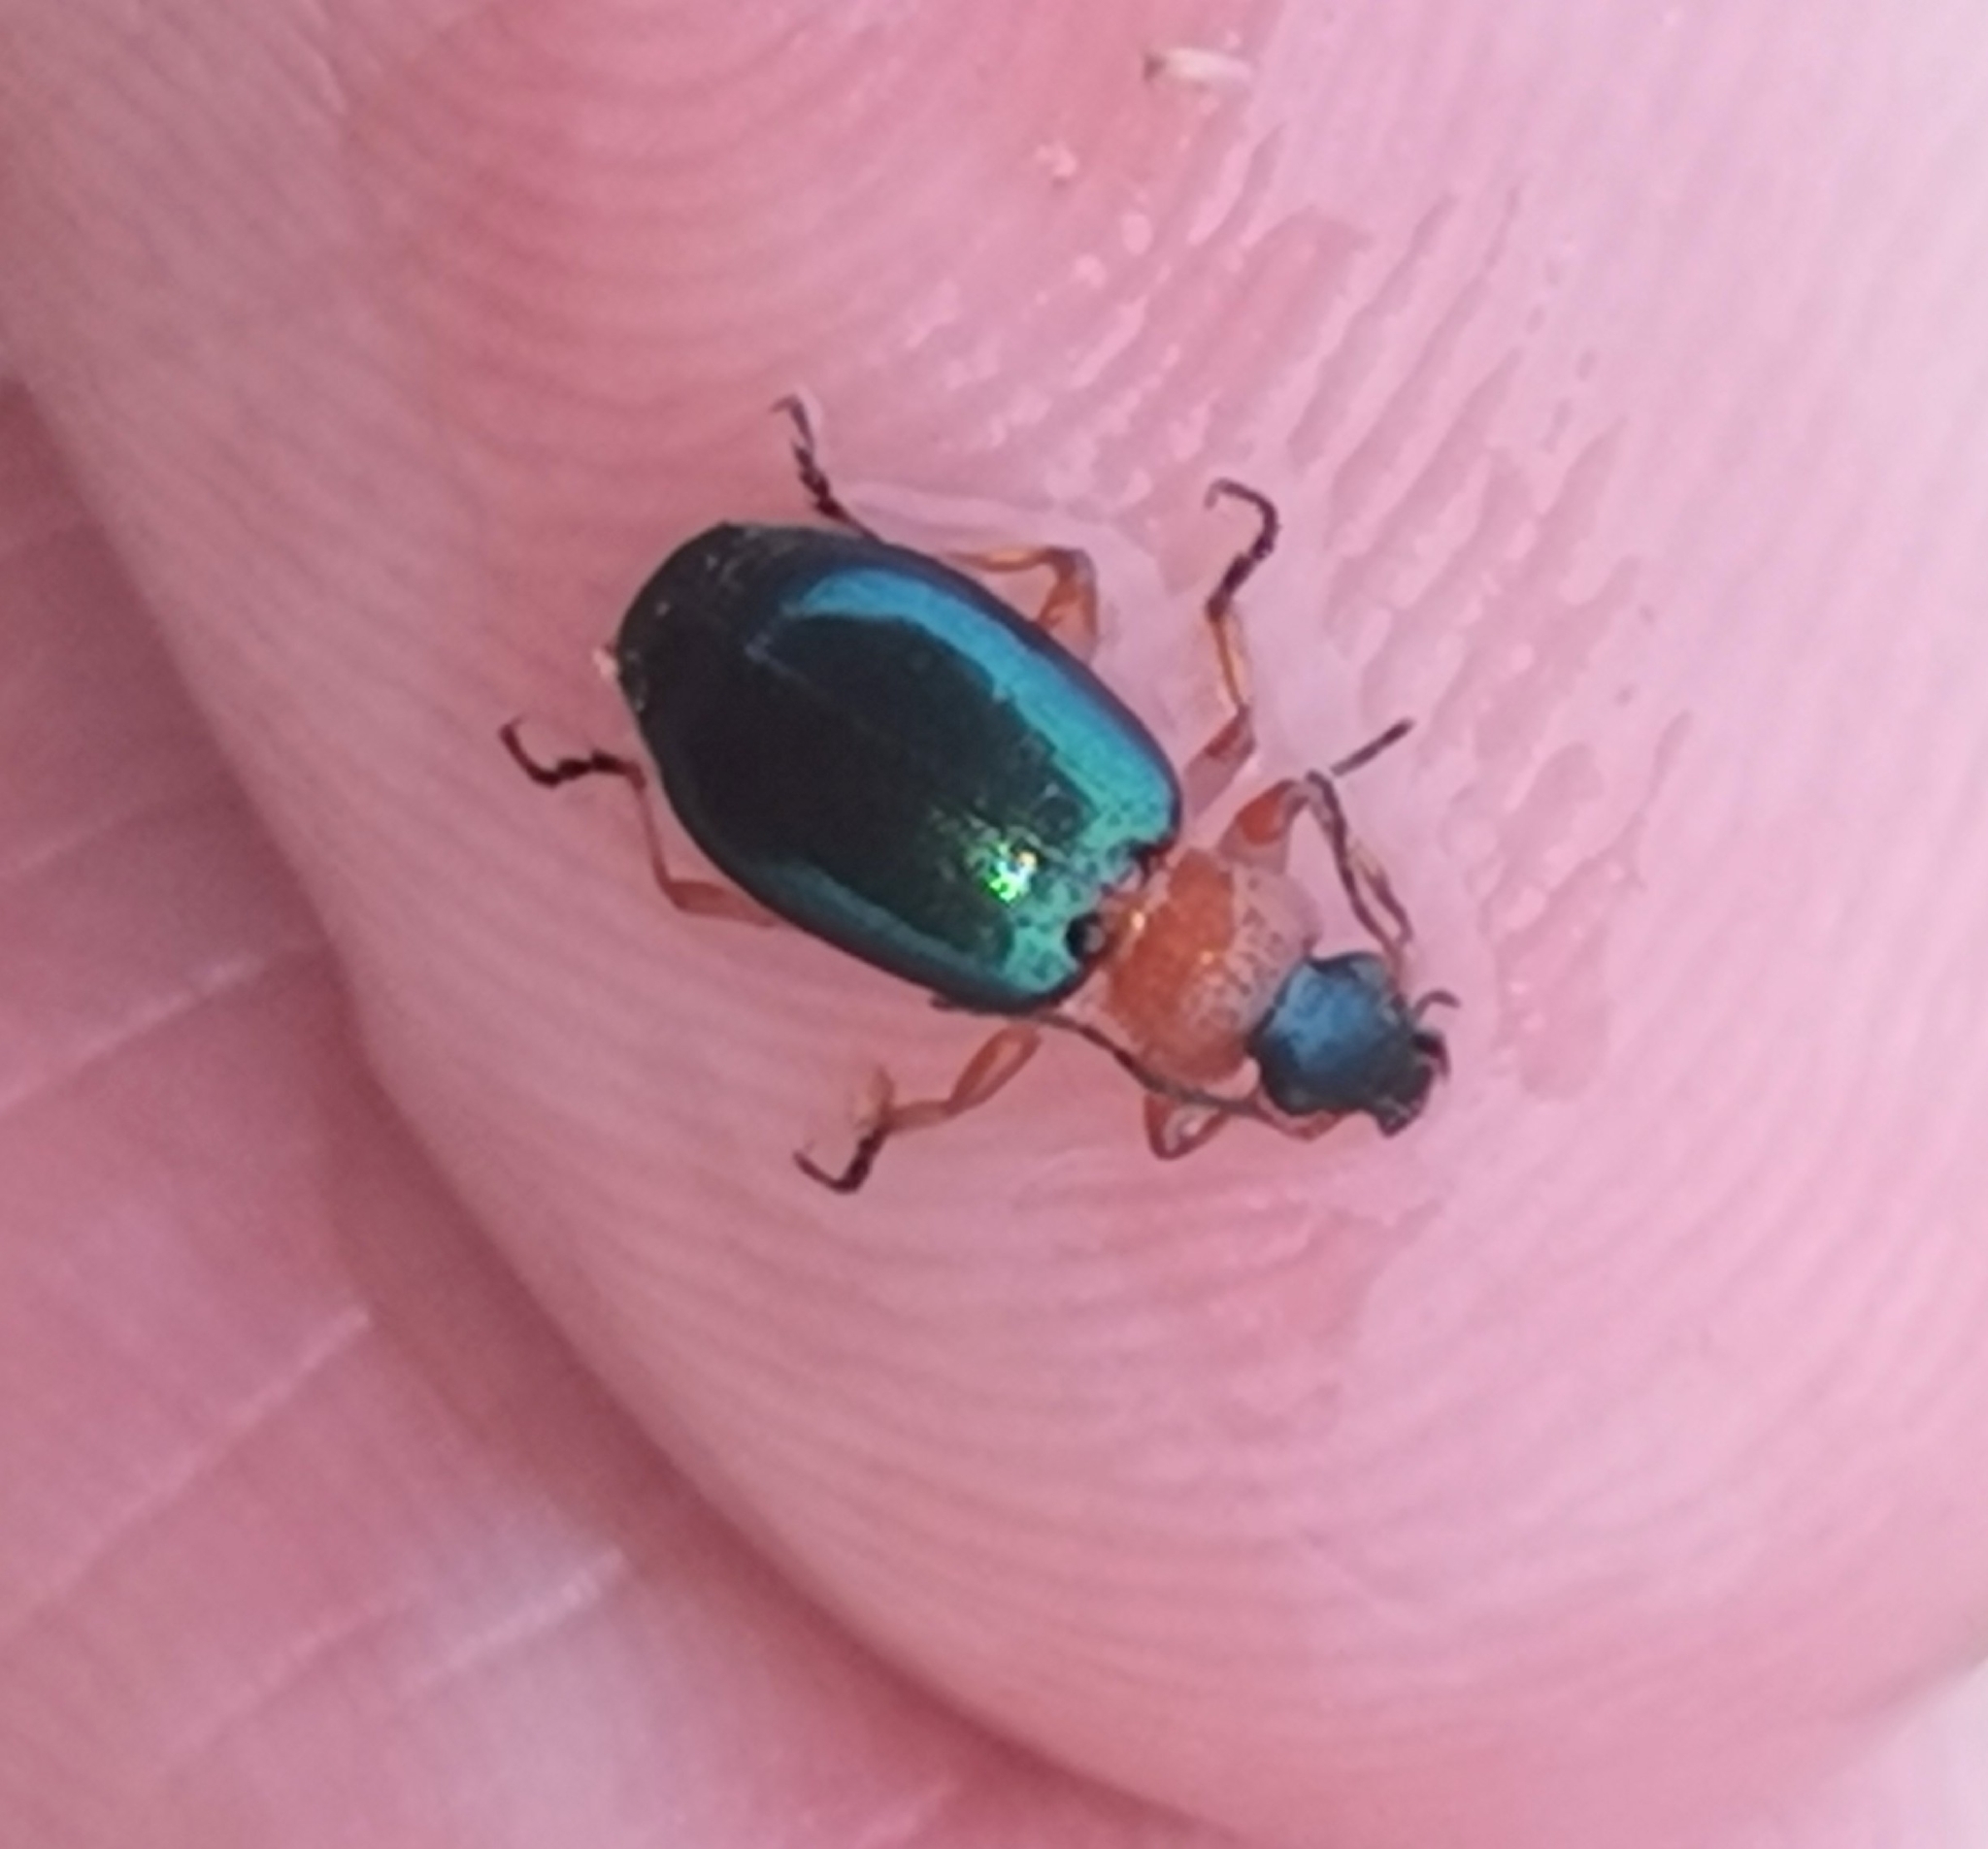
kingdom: Animalia
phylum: Arthropoda
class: Insecta
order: Coleoptera
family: Carabidae
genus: Lebia
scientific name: Lebia chlorocephala
